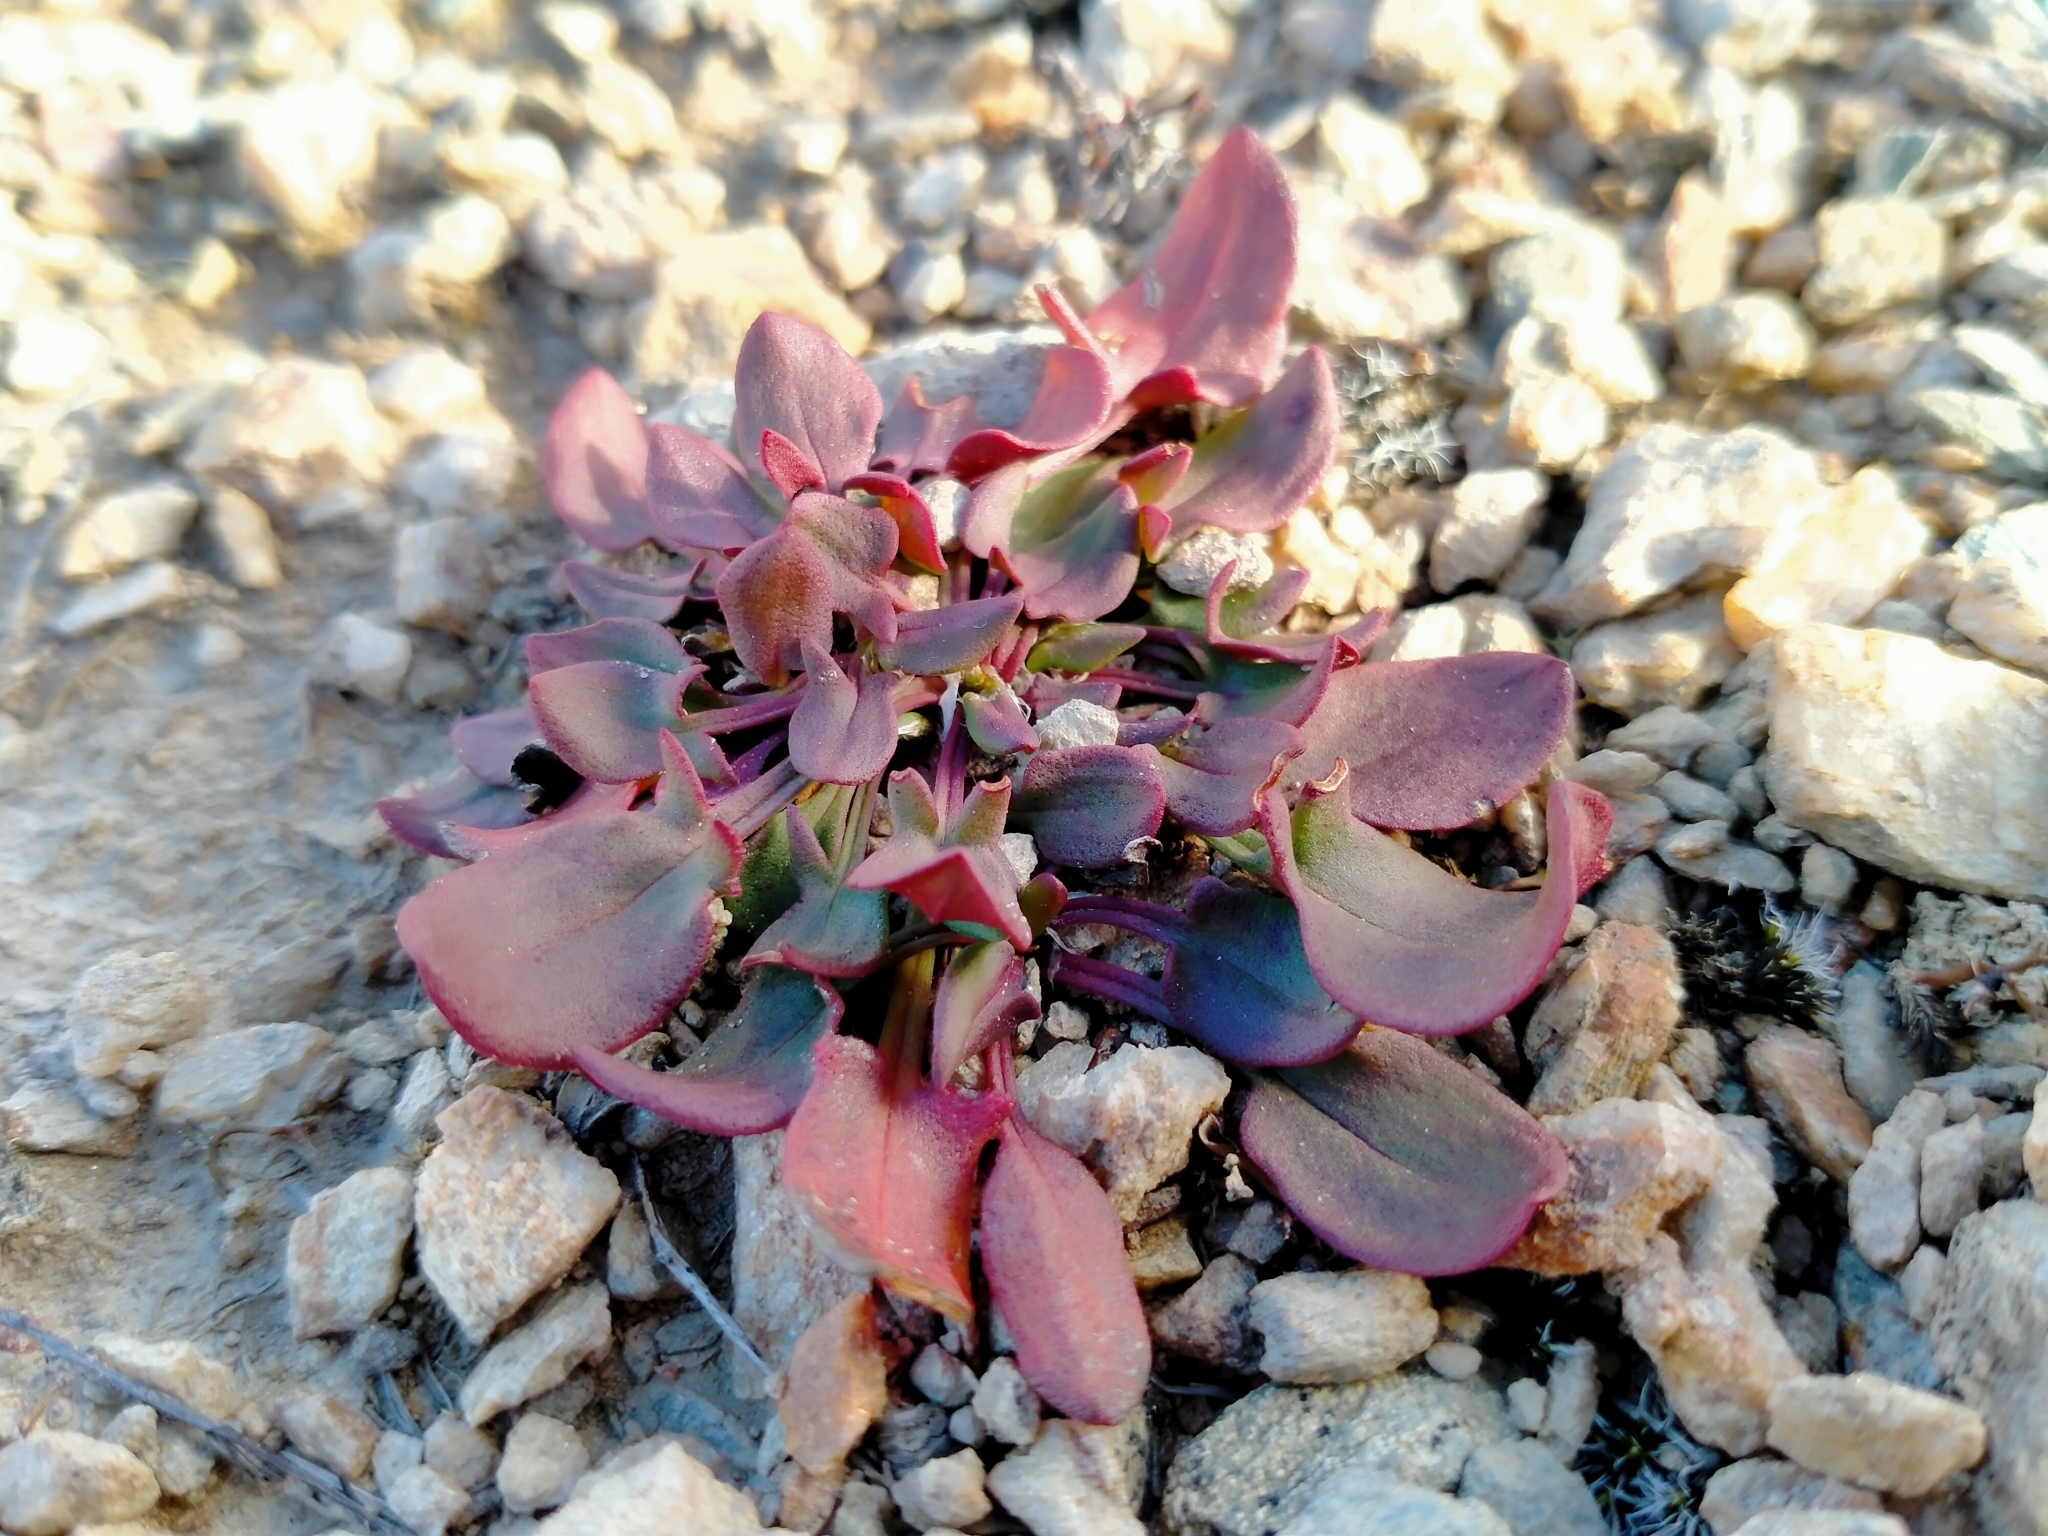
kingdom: Plantae
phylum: Tracheophyta
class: Magnoliopsida
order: Caryophyllales
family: Polygonaceae
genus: Rumex
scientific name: Rumex acetosella
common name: Common sheep sorrel
